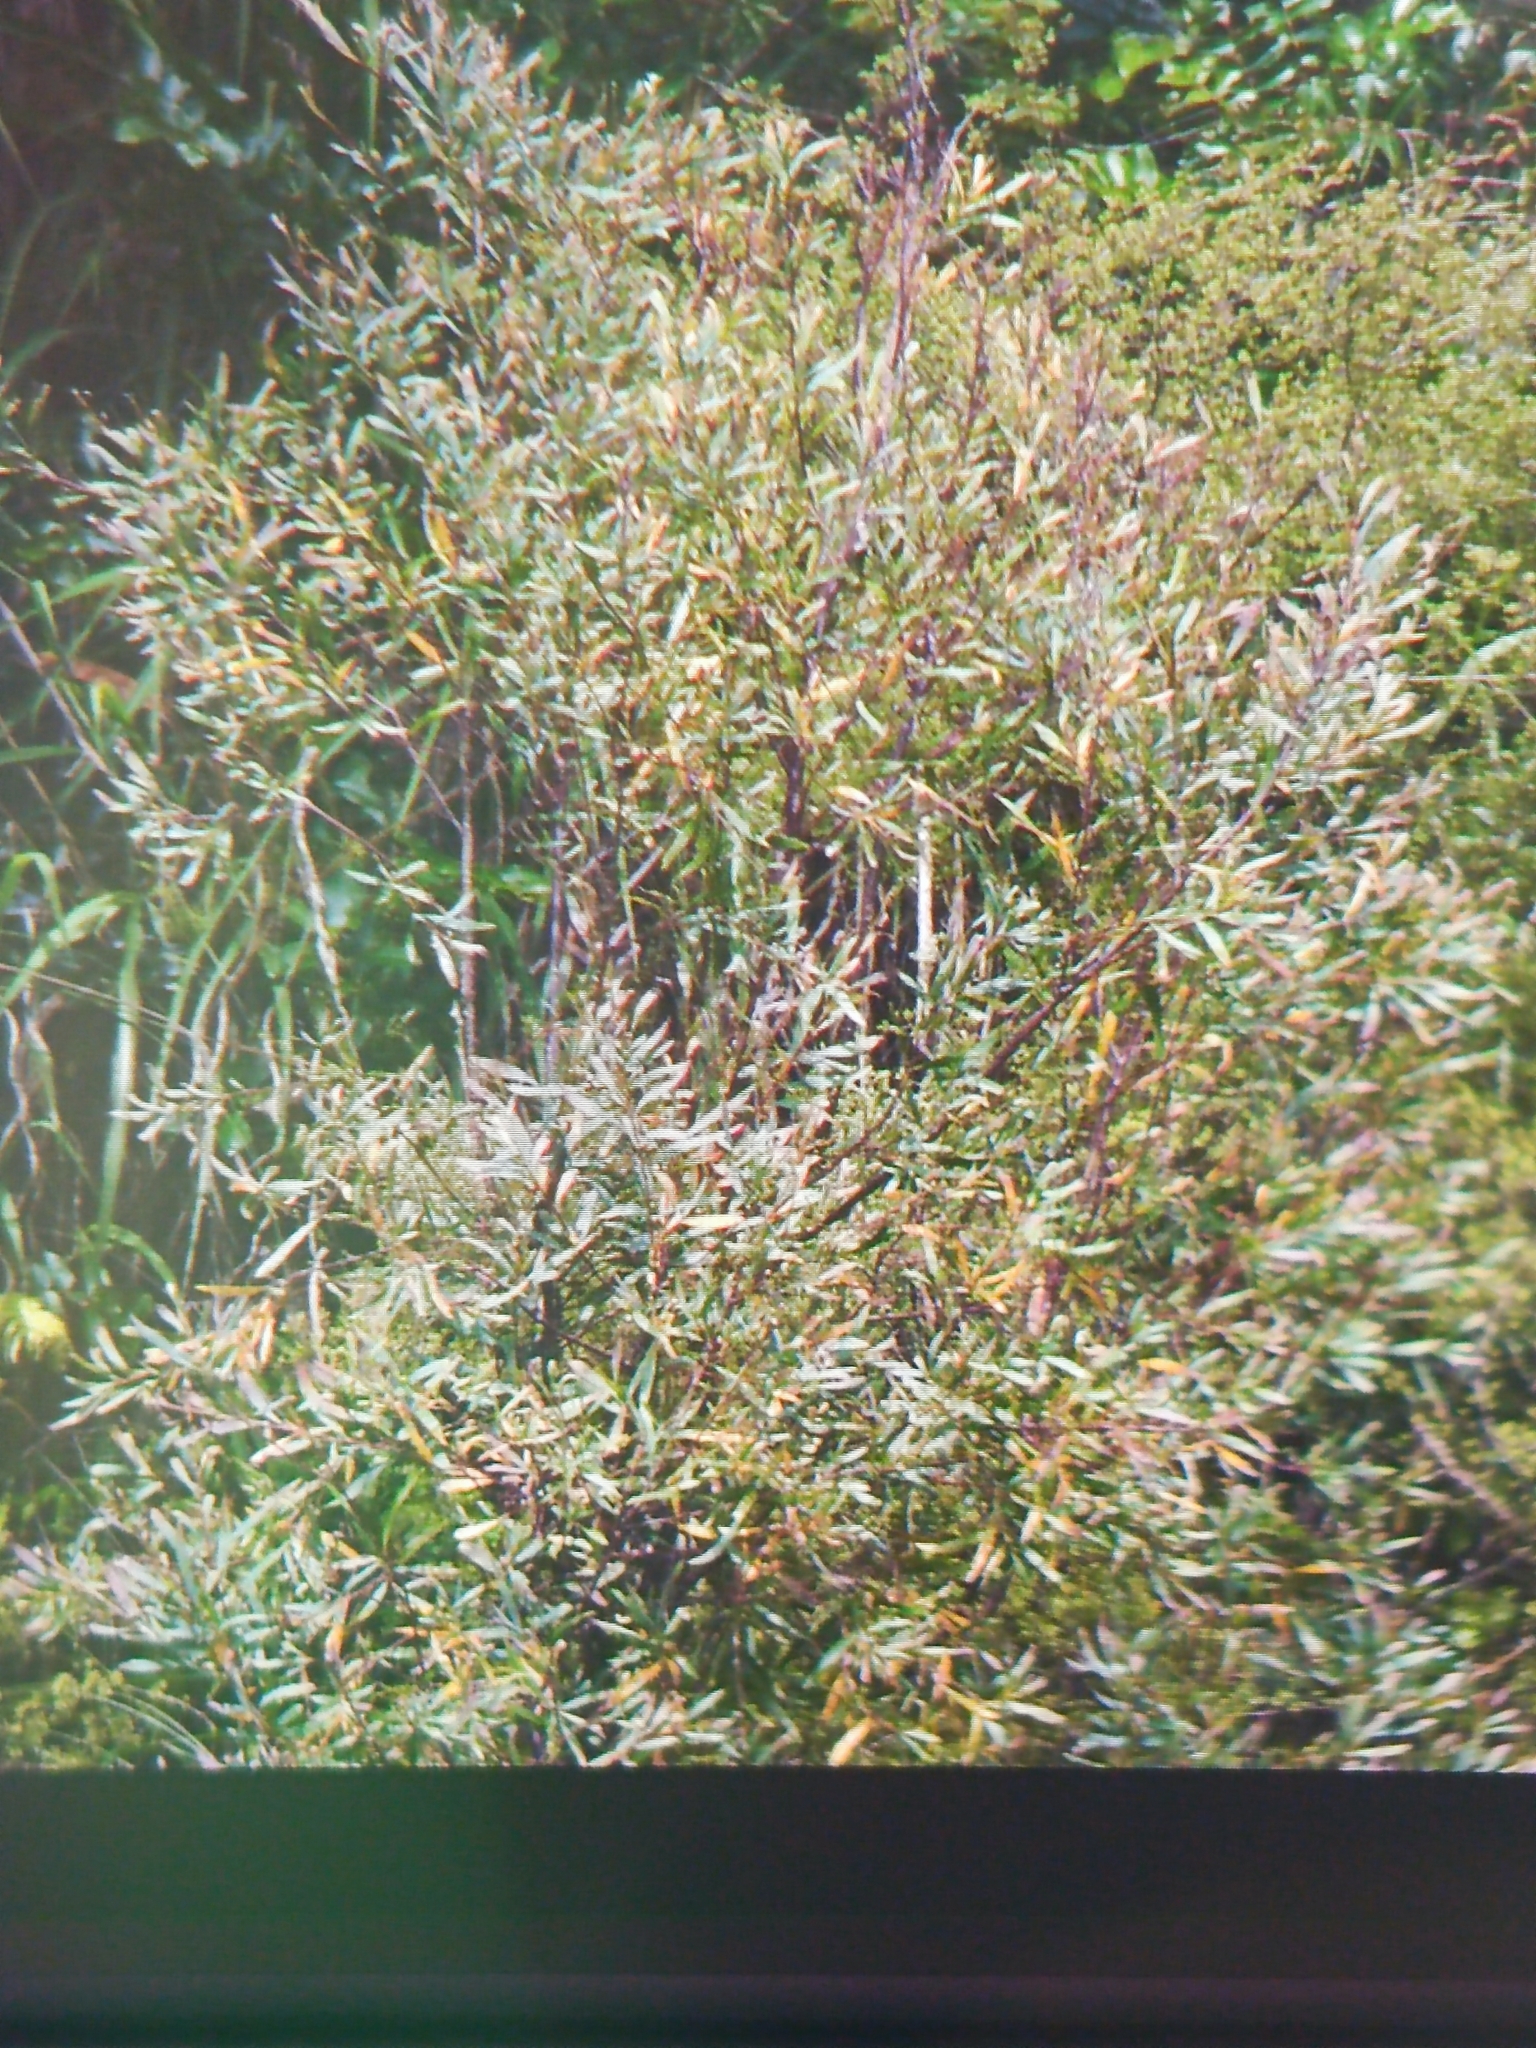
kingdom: Plantae
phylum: Tracheophyta
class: Magnoliopsida
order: Proteales
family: Proteaceae
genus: Hakea
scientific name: Hakea salicifolia
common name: Willow hakea
